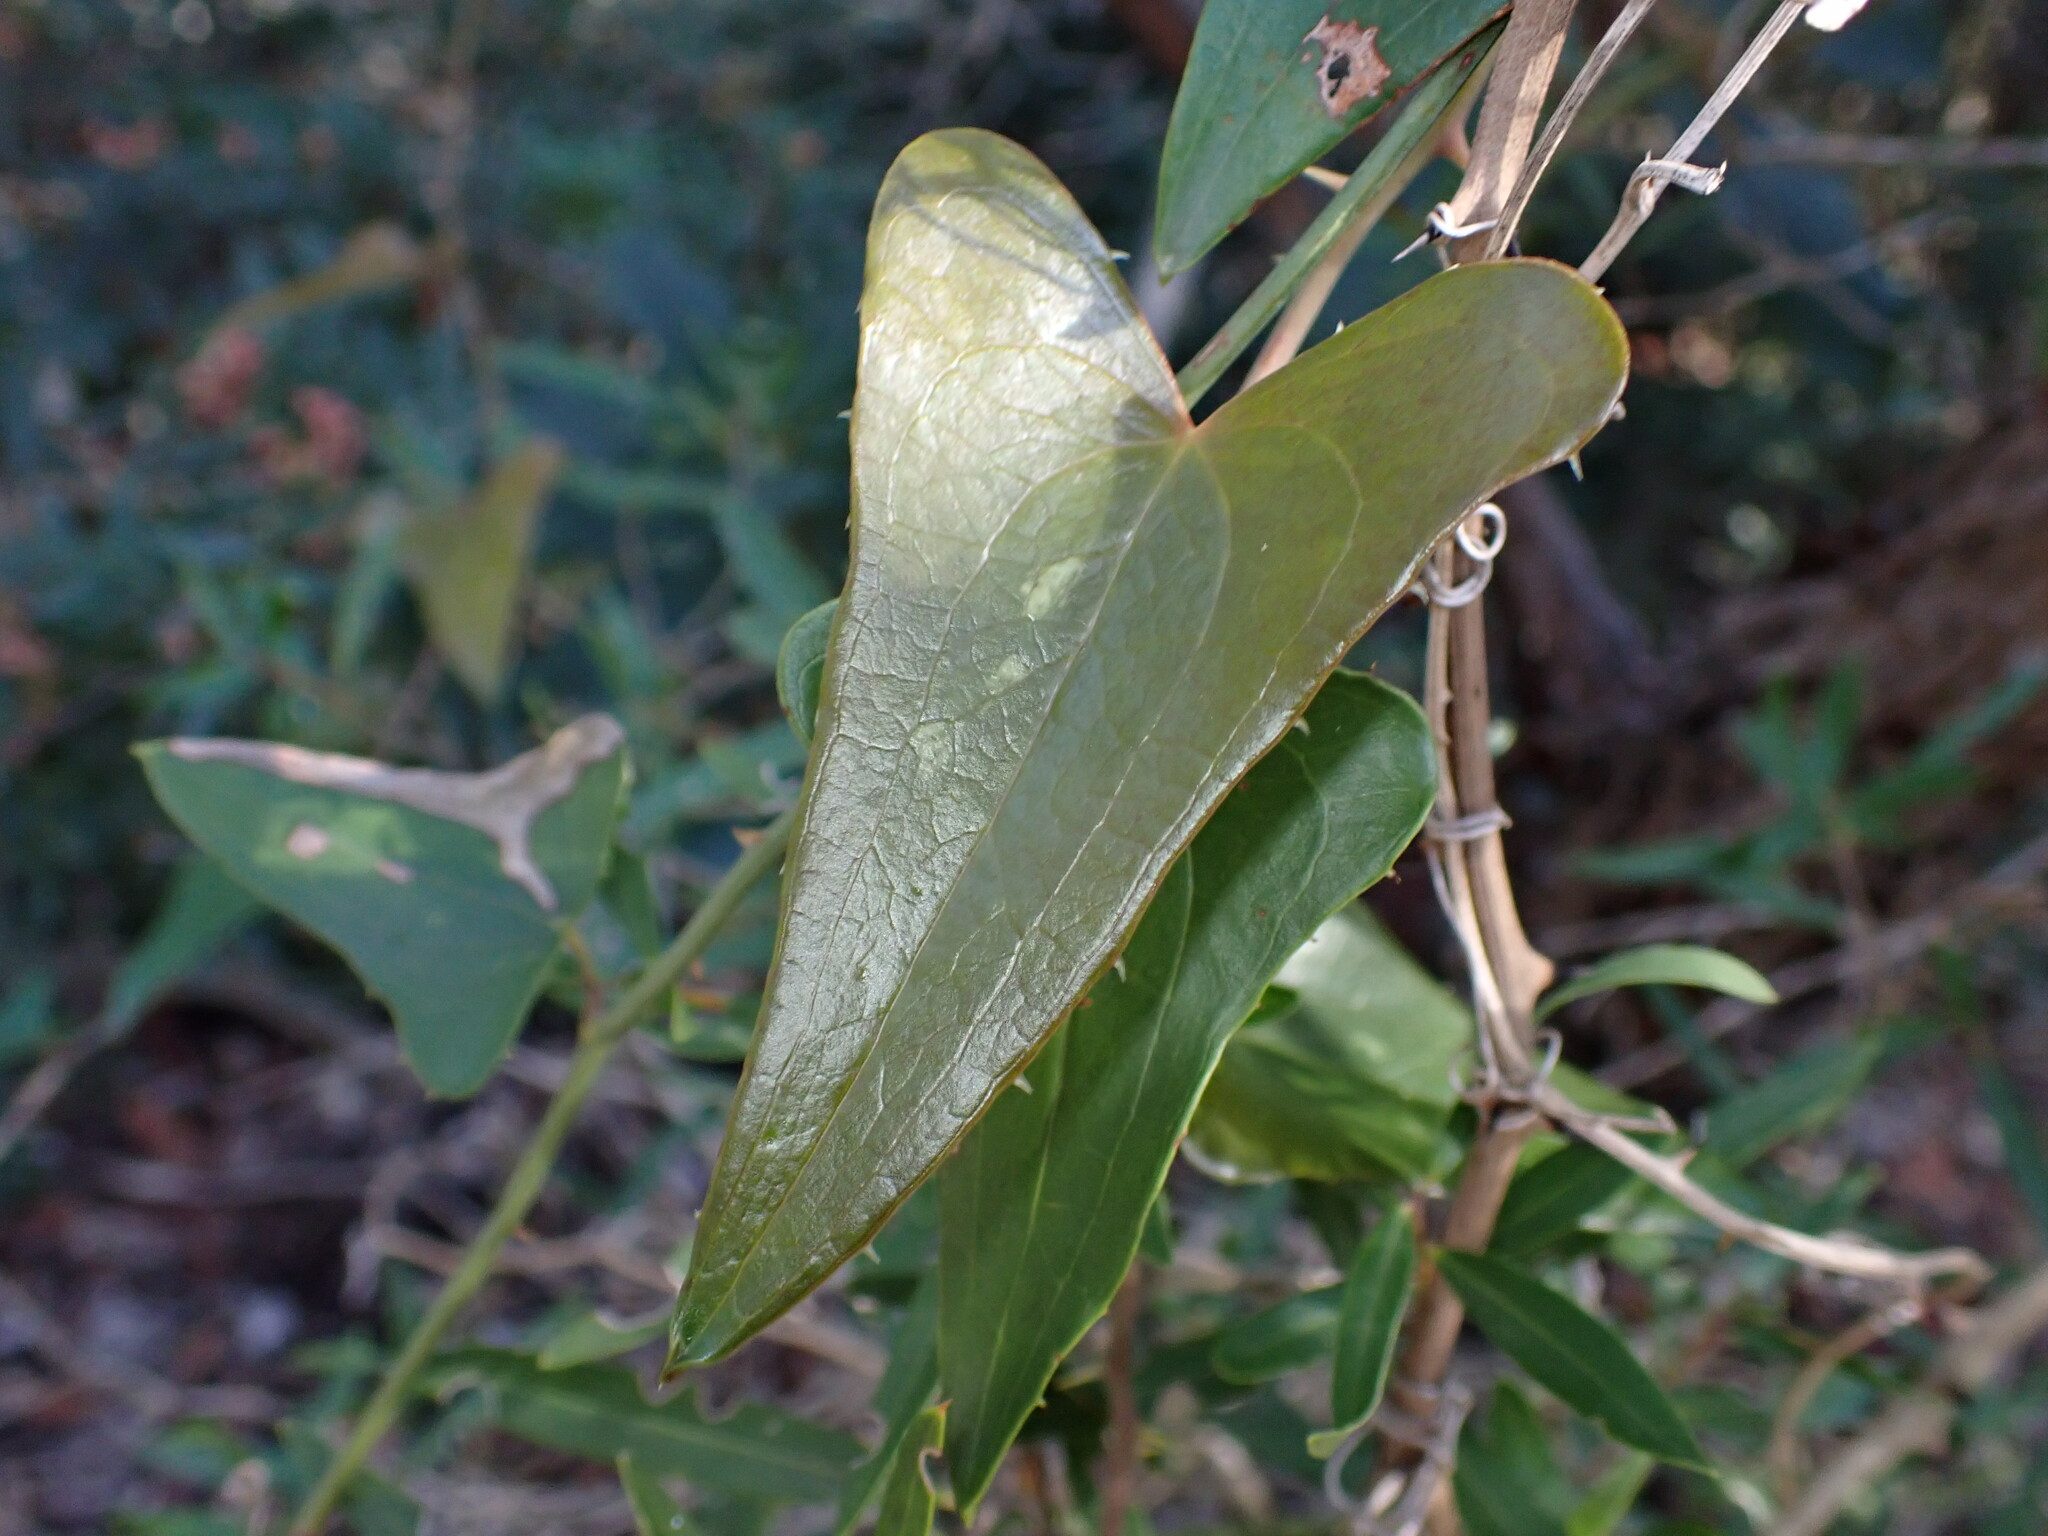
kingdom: Plantae
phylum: Tracheophyta
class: Liliopsida
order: Liliales
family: Smilacaceae
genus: Smilax
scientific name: Smilax aspera
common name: Common smilax
